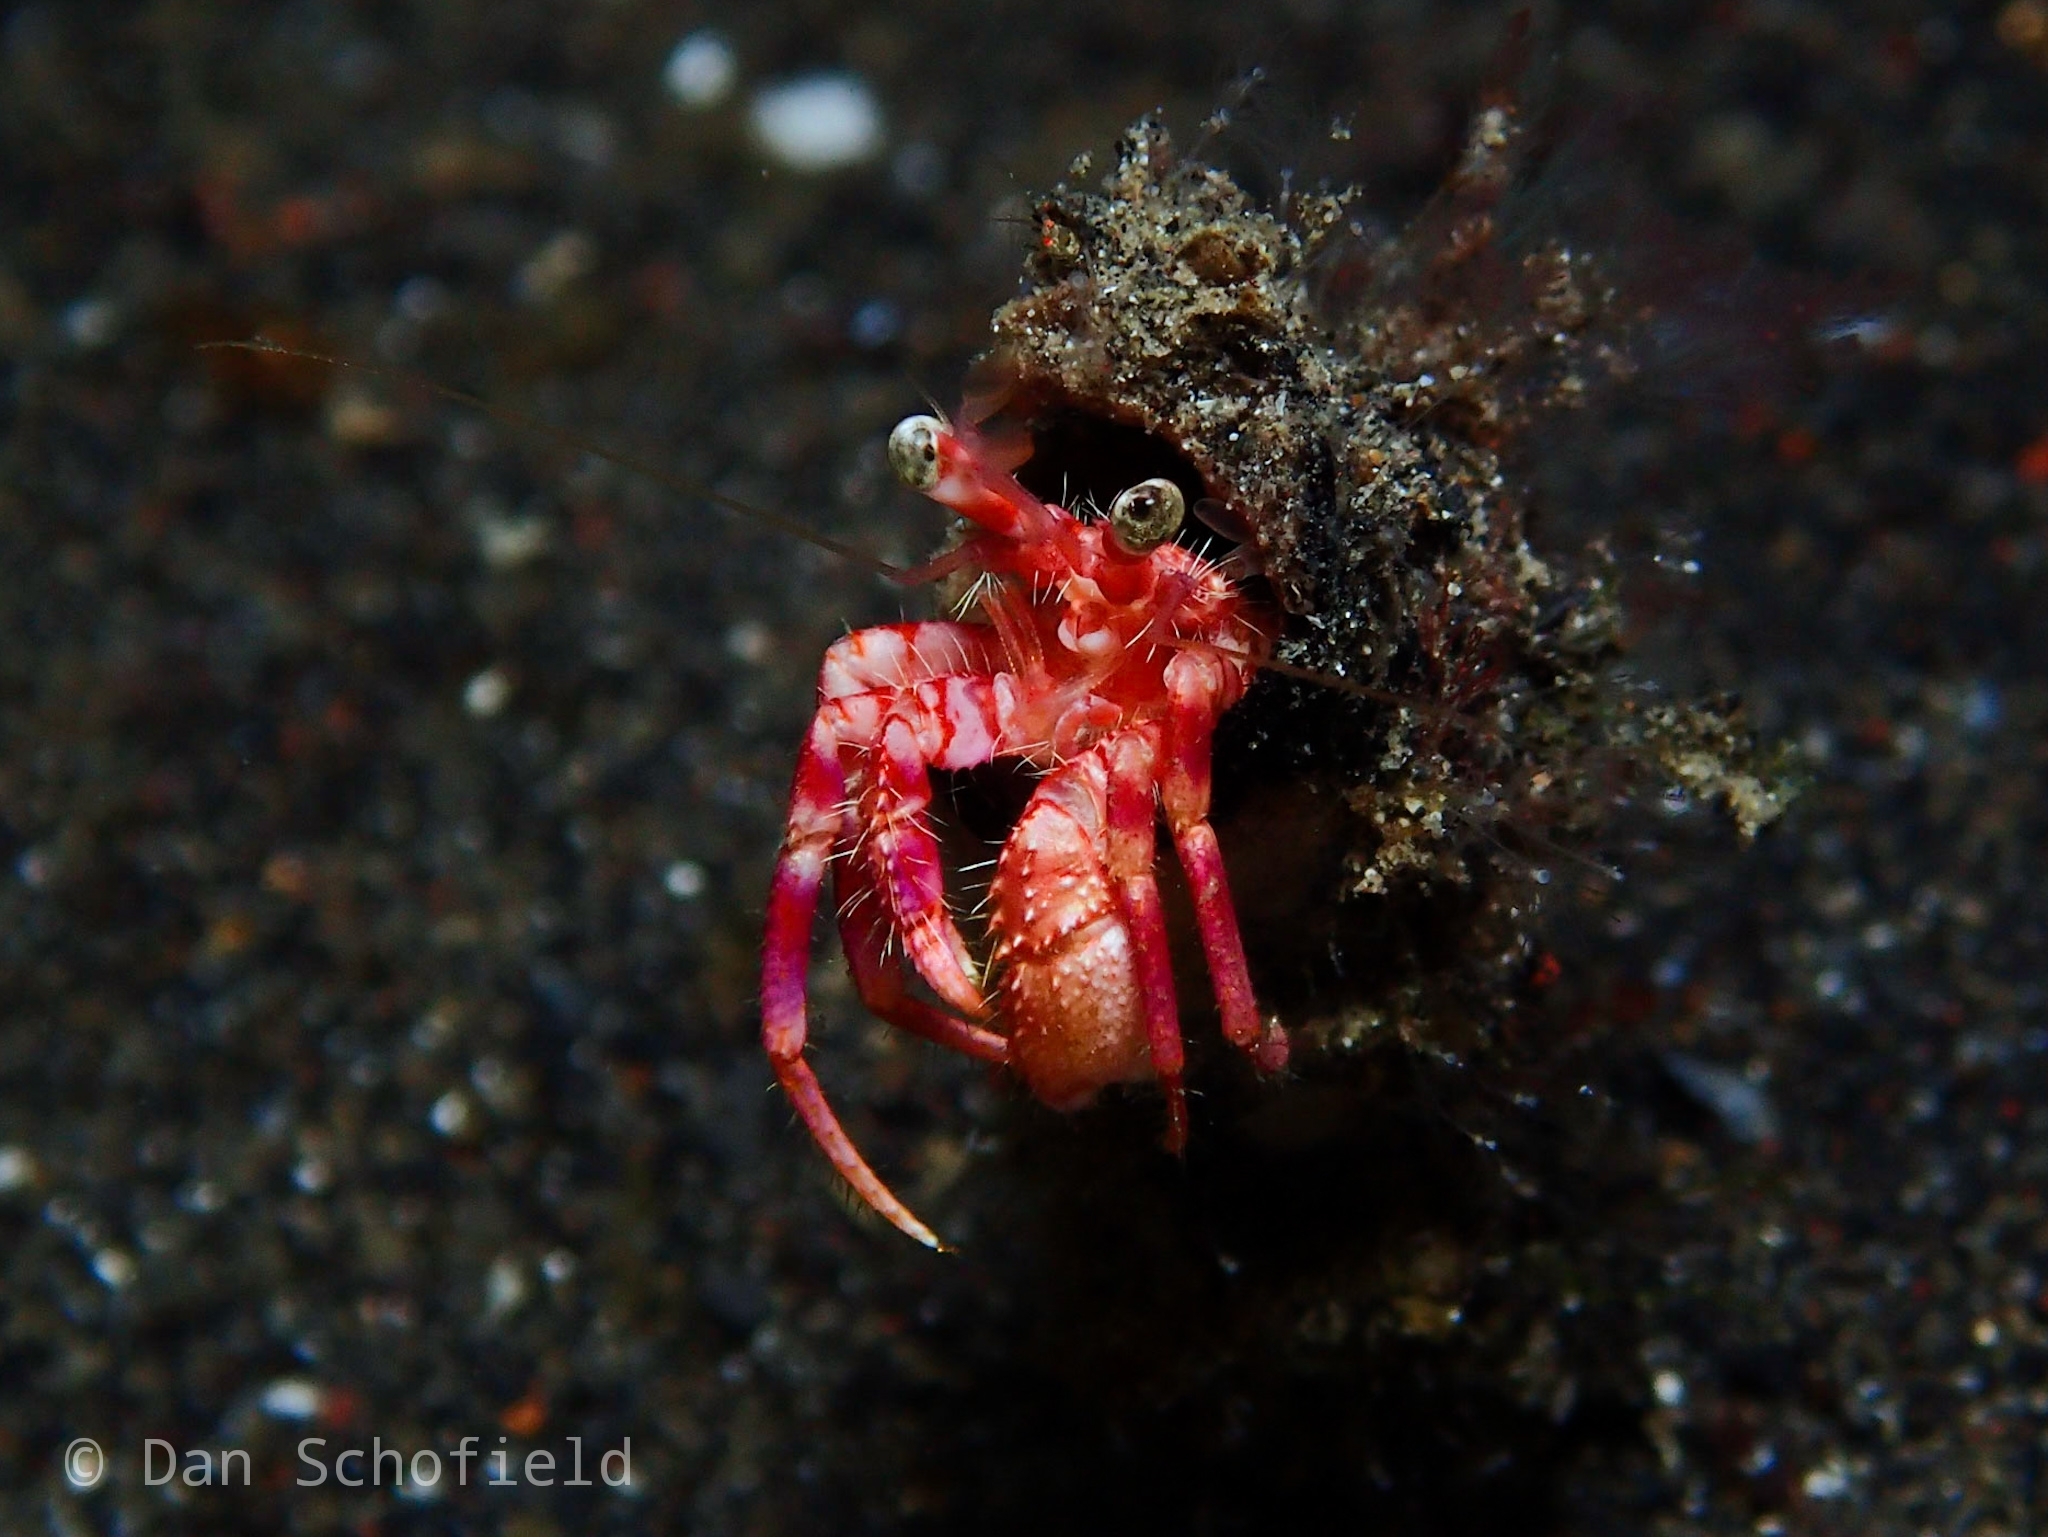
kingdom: Animalia
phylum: Arthropoda
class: Malacostraca
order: Decapoda
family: Diogenidae
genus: Dardanus
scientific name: Dardanus pedunculatus
